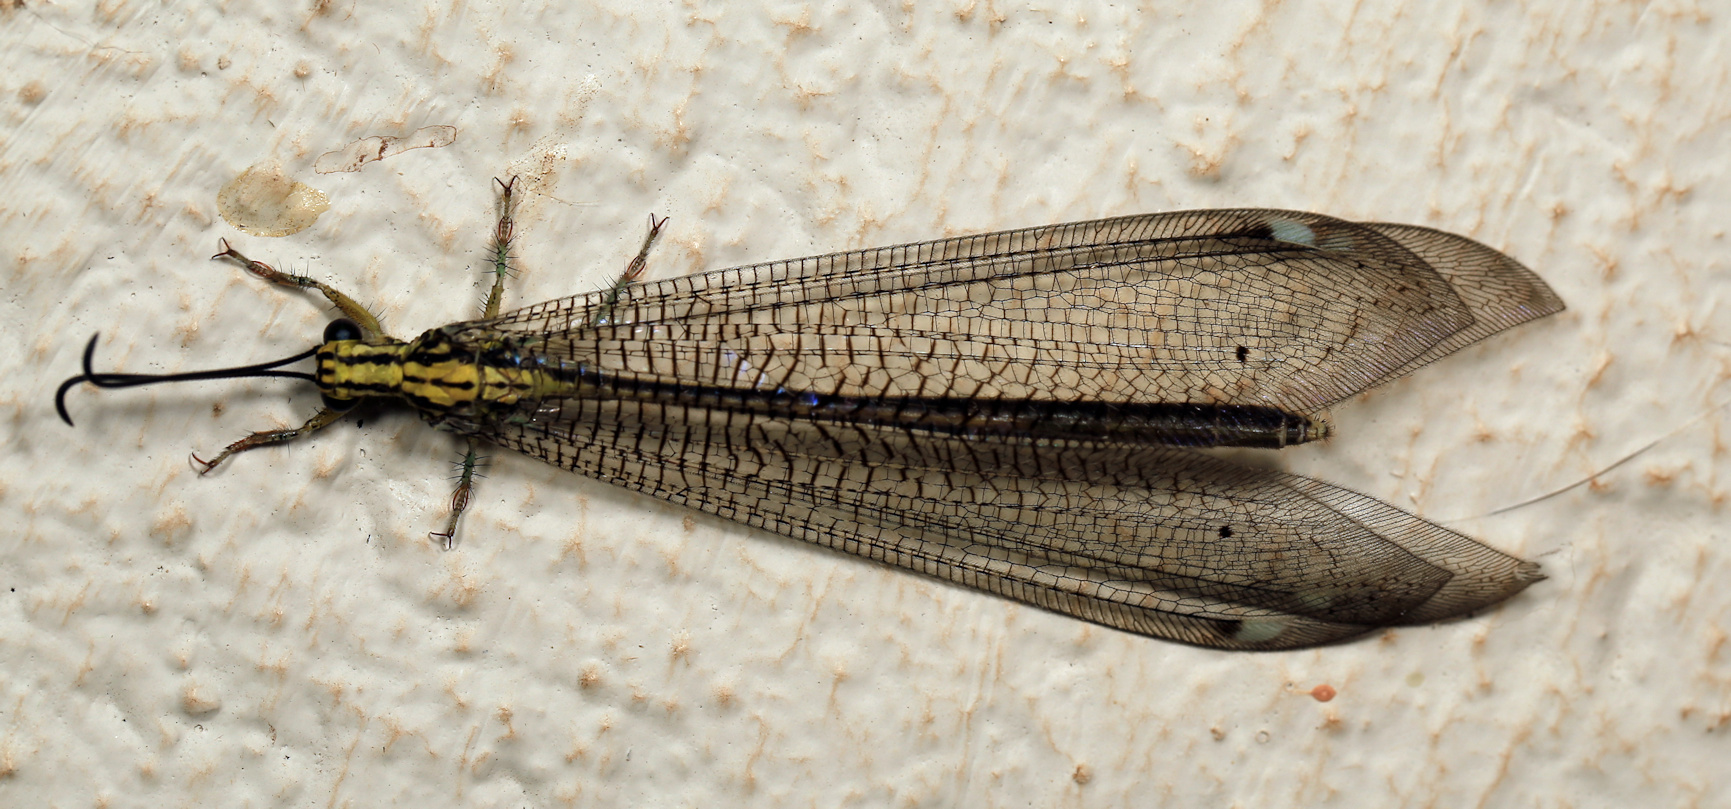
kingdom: Animalia
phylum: Arthropoda
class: Insecta
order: Neuroptera
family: Myrmeleontidae
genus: Banyutus
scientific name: Banyutus lethalis
